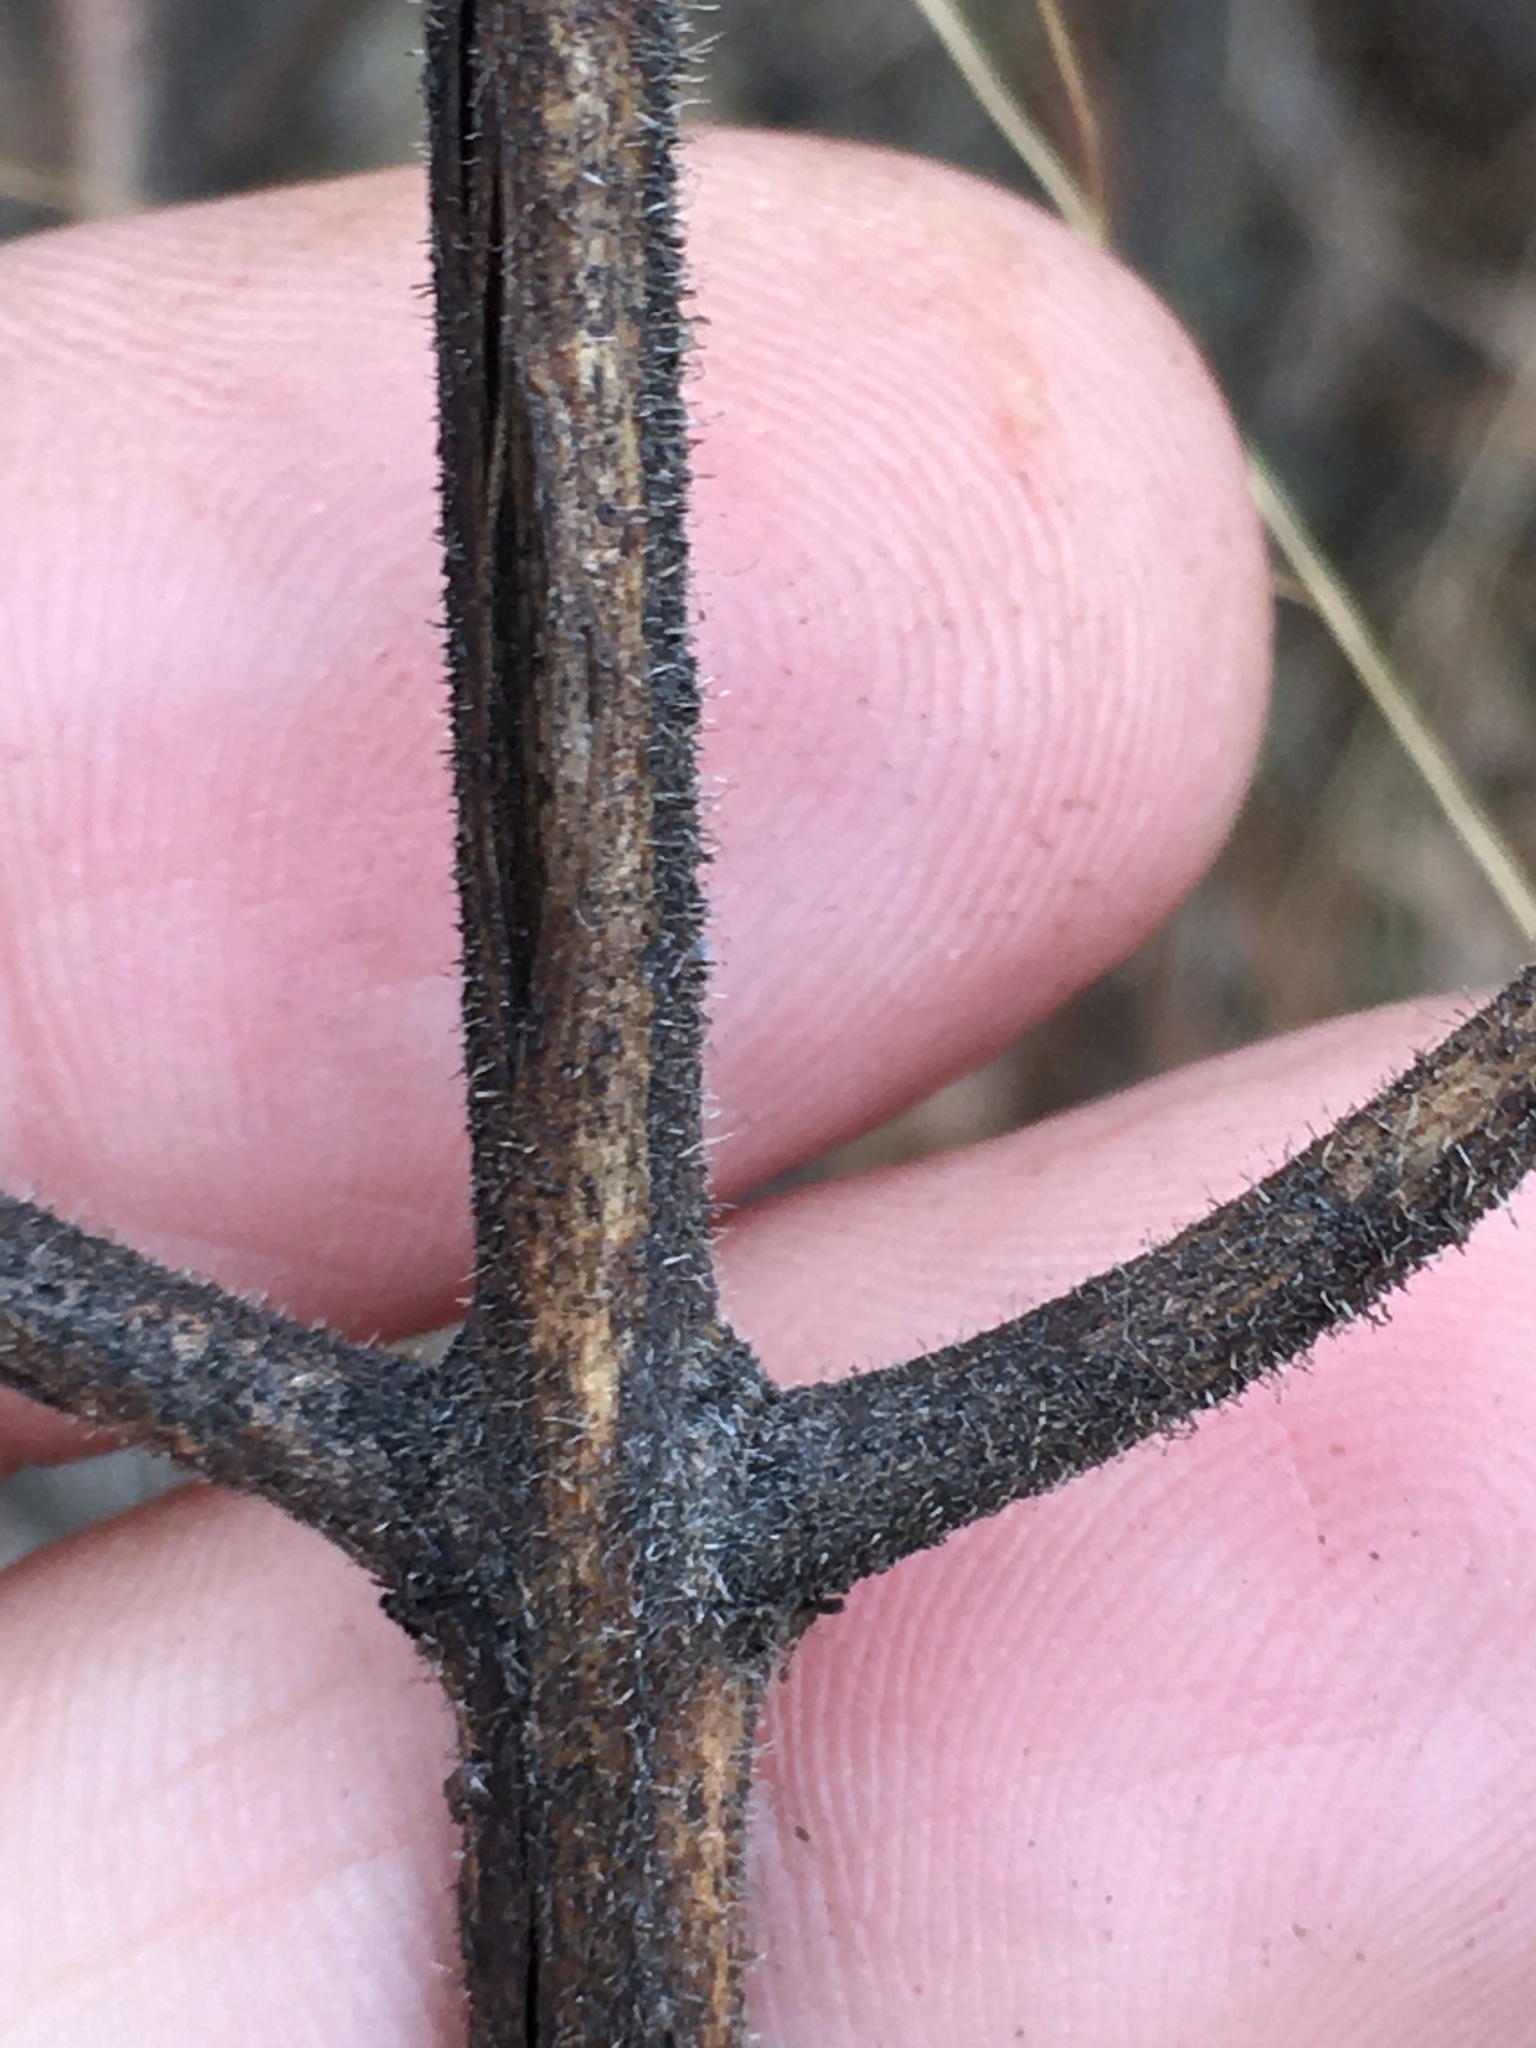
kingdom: Plantae
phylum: Tracheophyta
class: Magnoliopsida
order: Lamiales
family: Orobanchaceae
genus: Aureolaria
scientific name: Aureolaria pectinata
